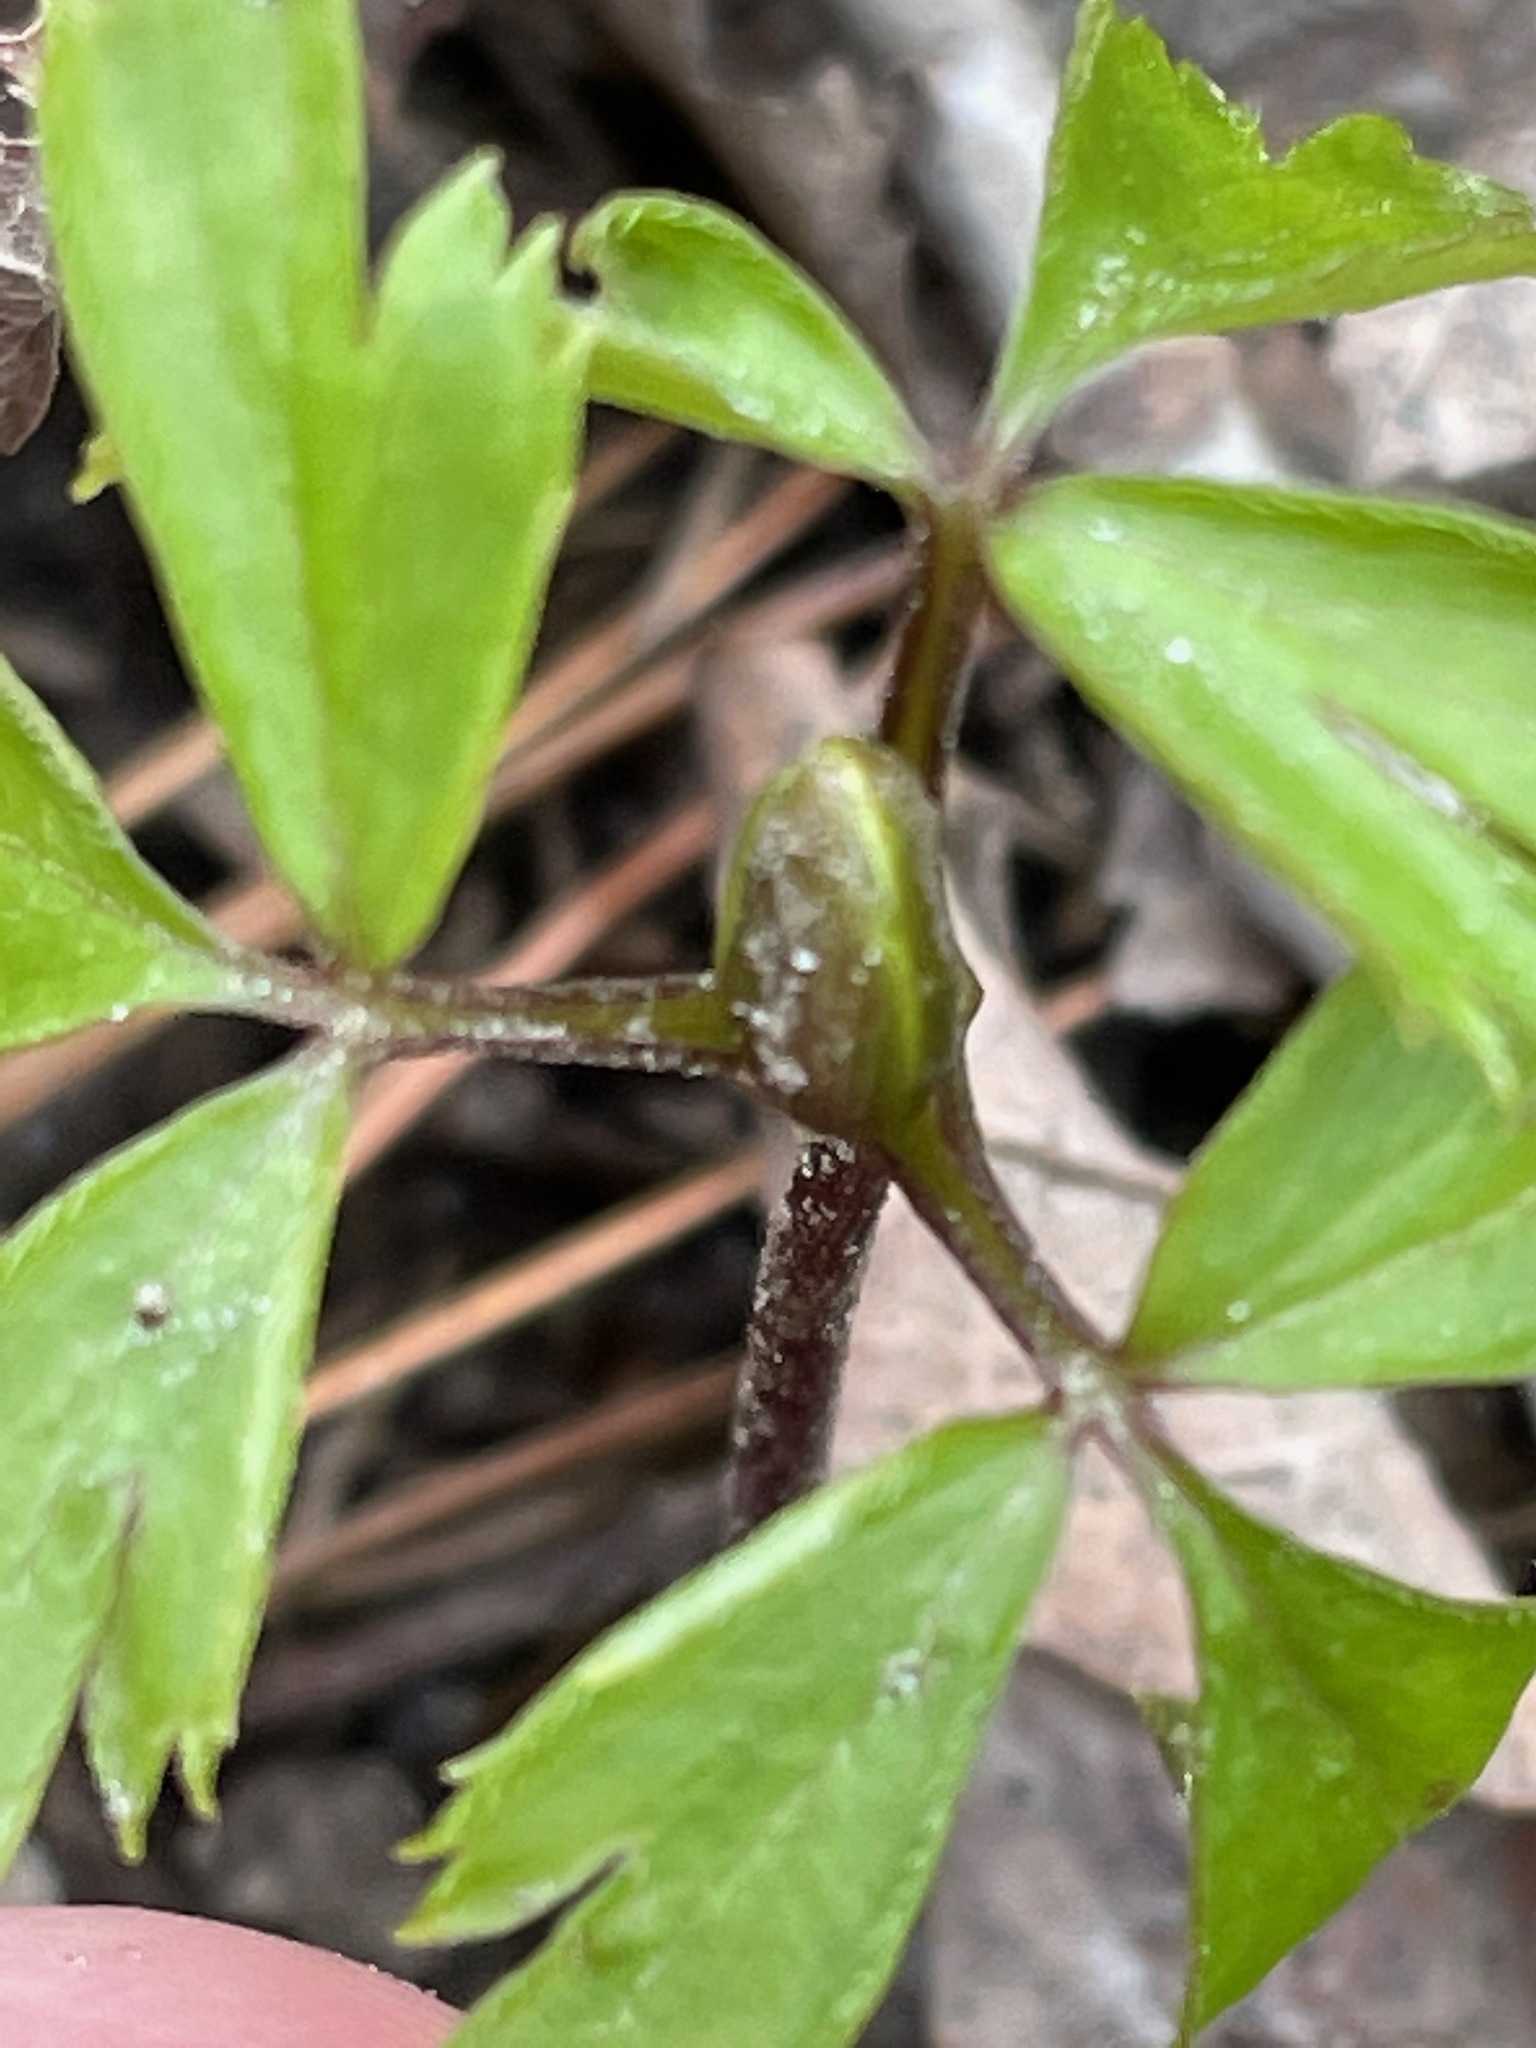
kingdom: Plantae
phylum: Tracheophyta
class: Magnoliopsida
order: Ranunculales
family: Ranunculaceae
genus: Anemone
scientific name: Anemone quinquefolia
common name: Wood anemone
